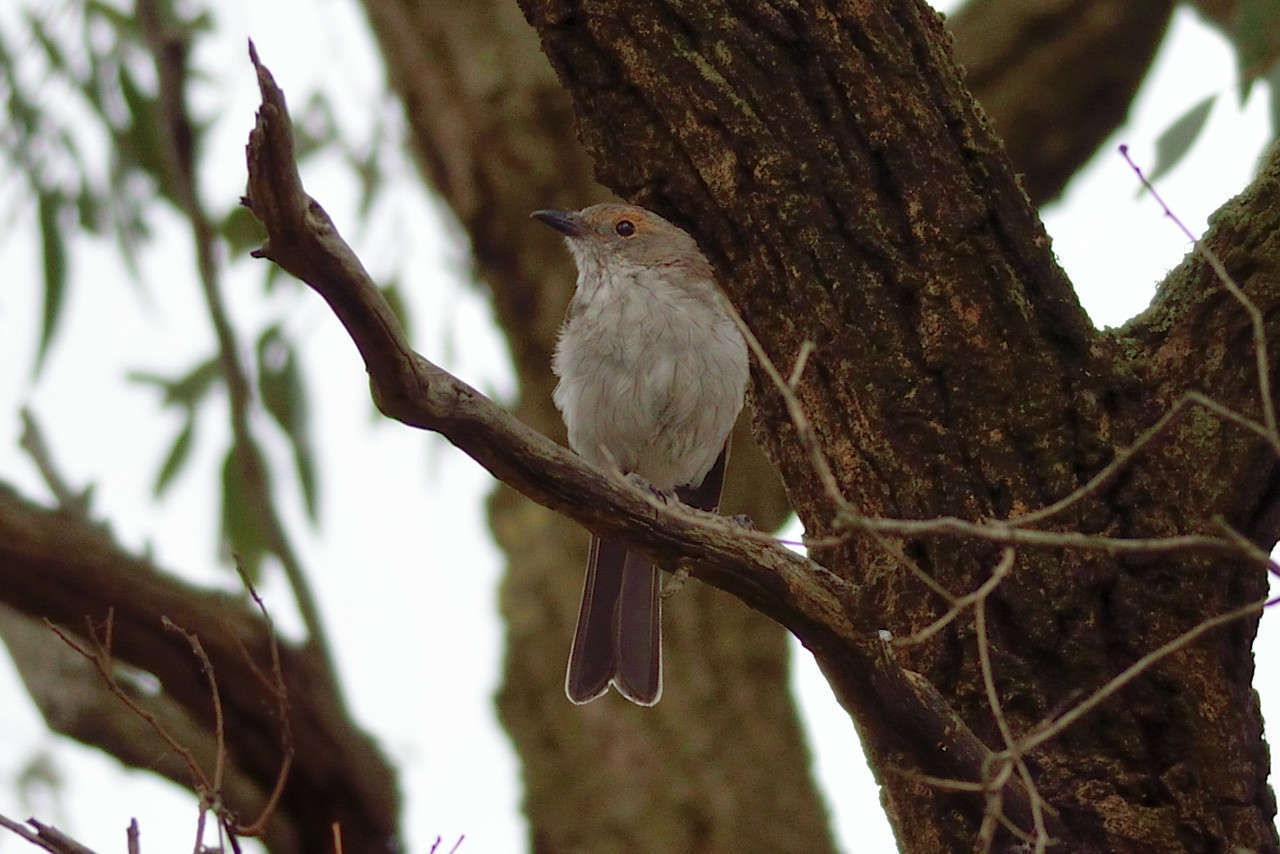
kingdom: Animalia
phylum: Chordata
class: Aves
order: Passeriformes
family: Pachycephalidae
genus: Colluricincla
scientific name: Colluricincla harmonica
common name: Grey shrikethrush
